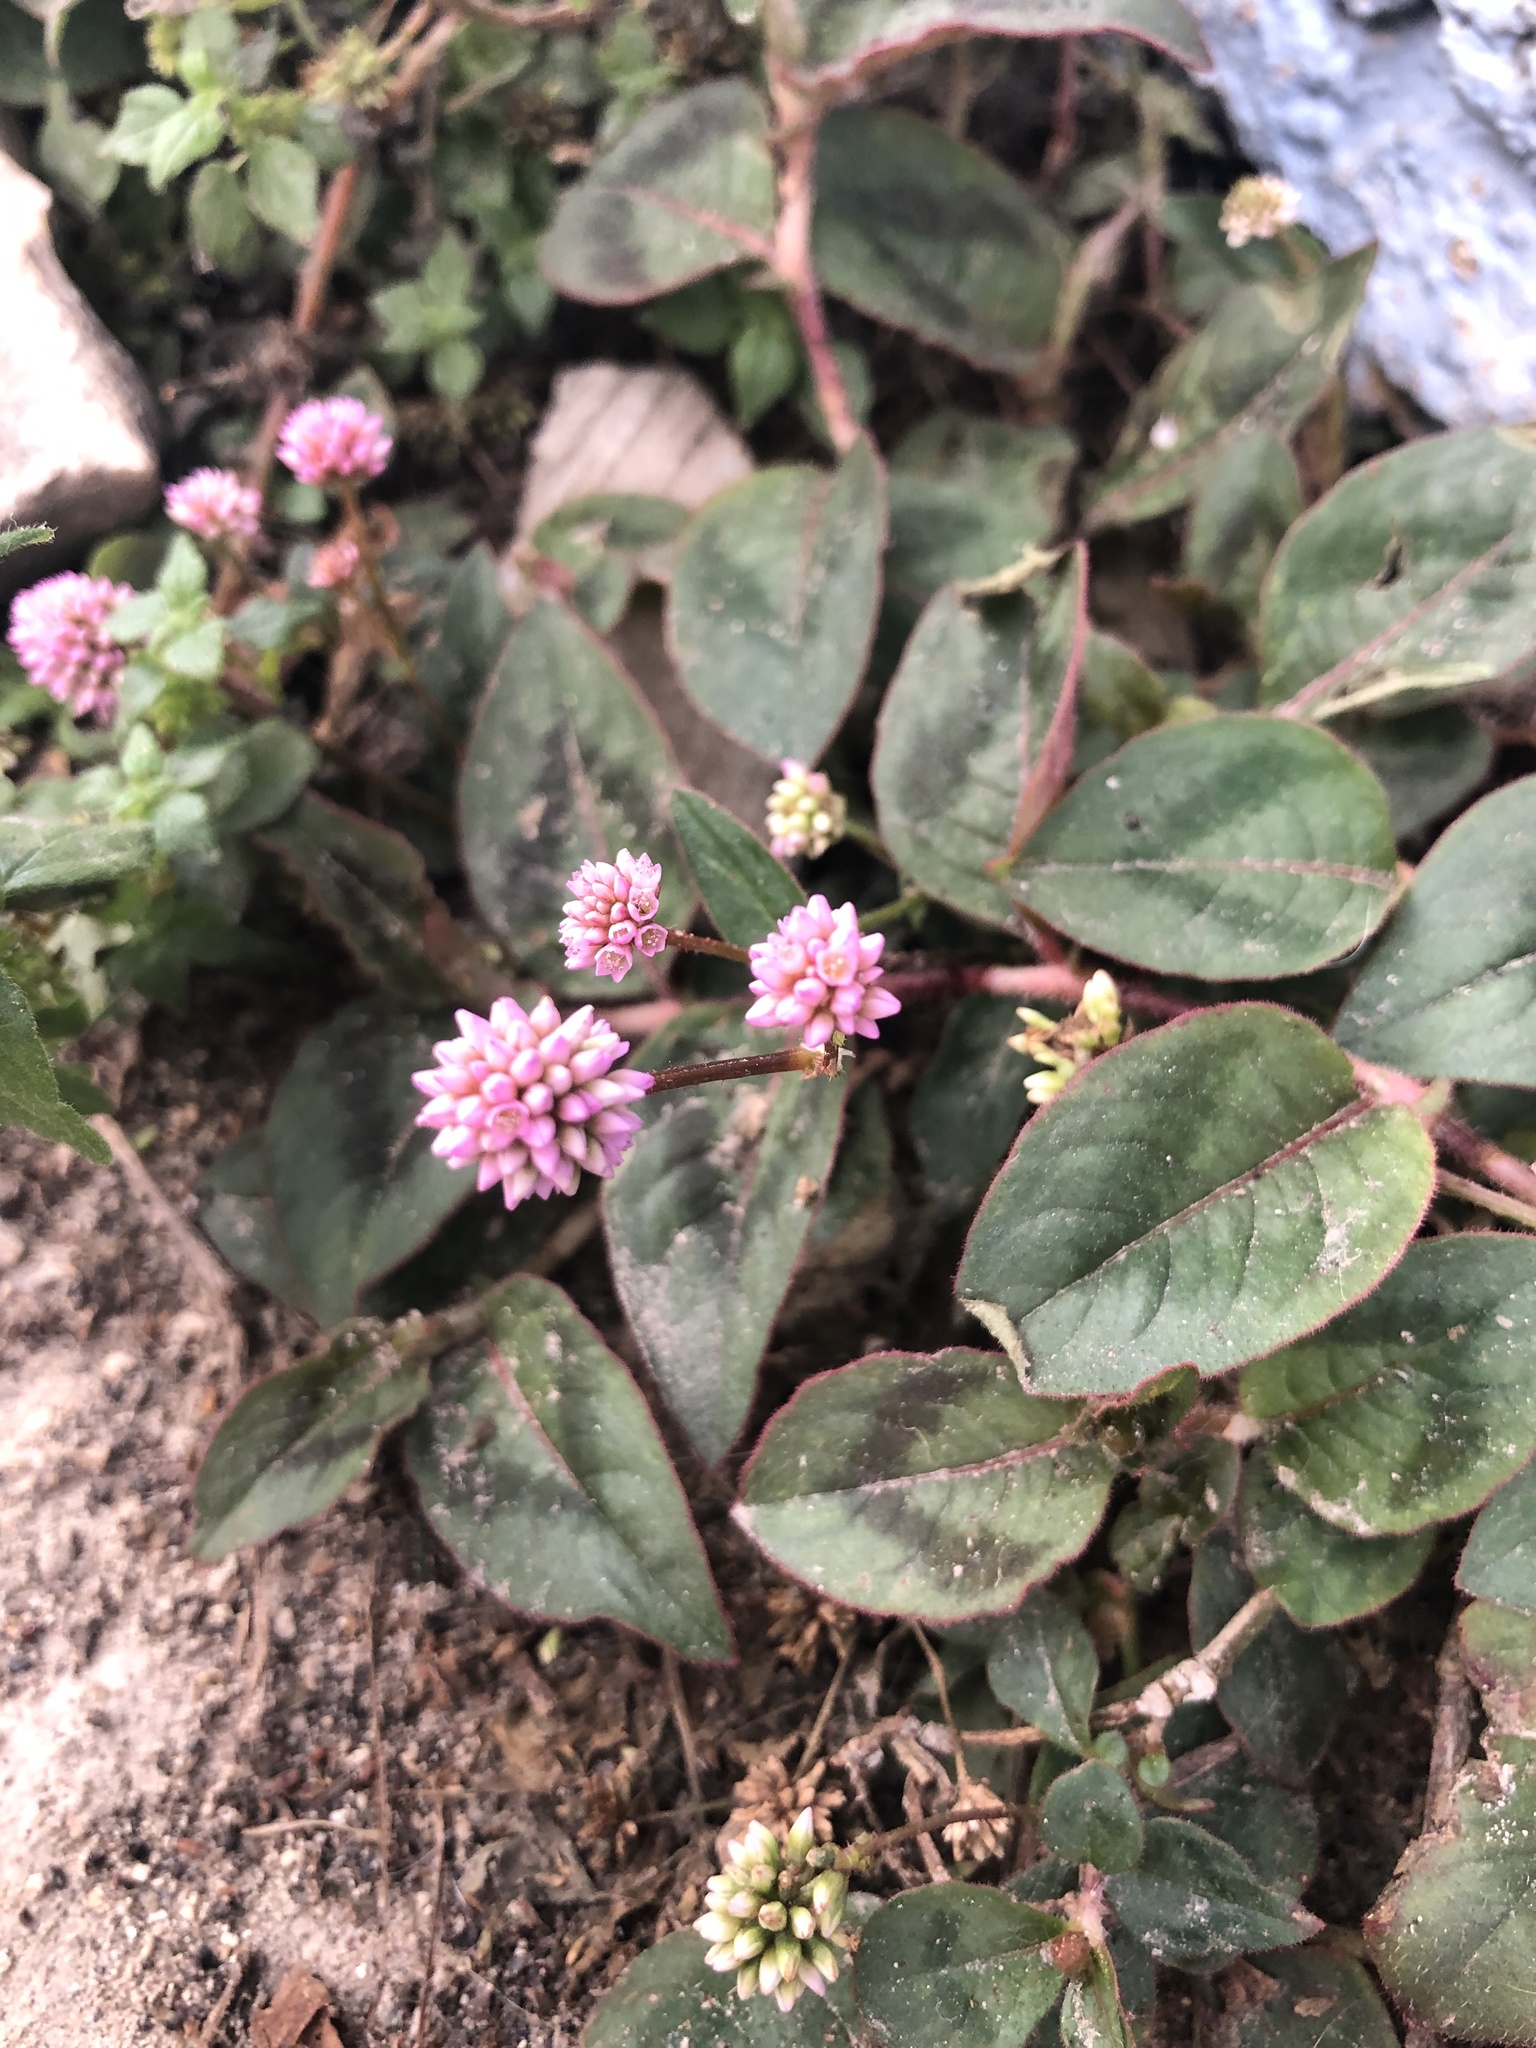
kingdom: Plantae
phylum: Tracheophyta
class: Magnoliopsida
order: Caryophyllales
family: Polygonaceae
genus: Persicaria
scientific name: Persicaria capitata
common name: Pinkhead smartweed
